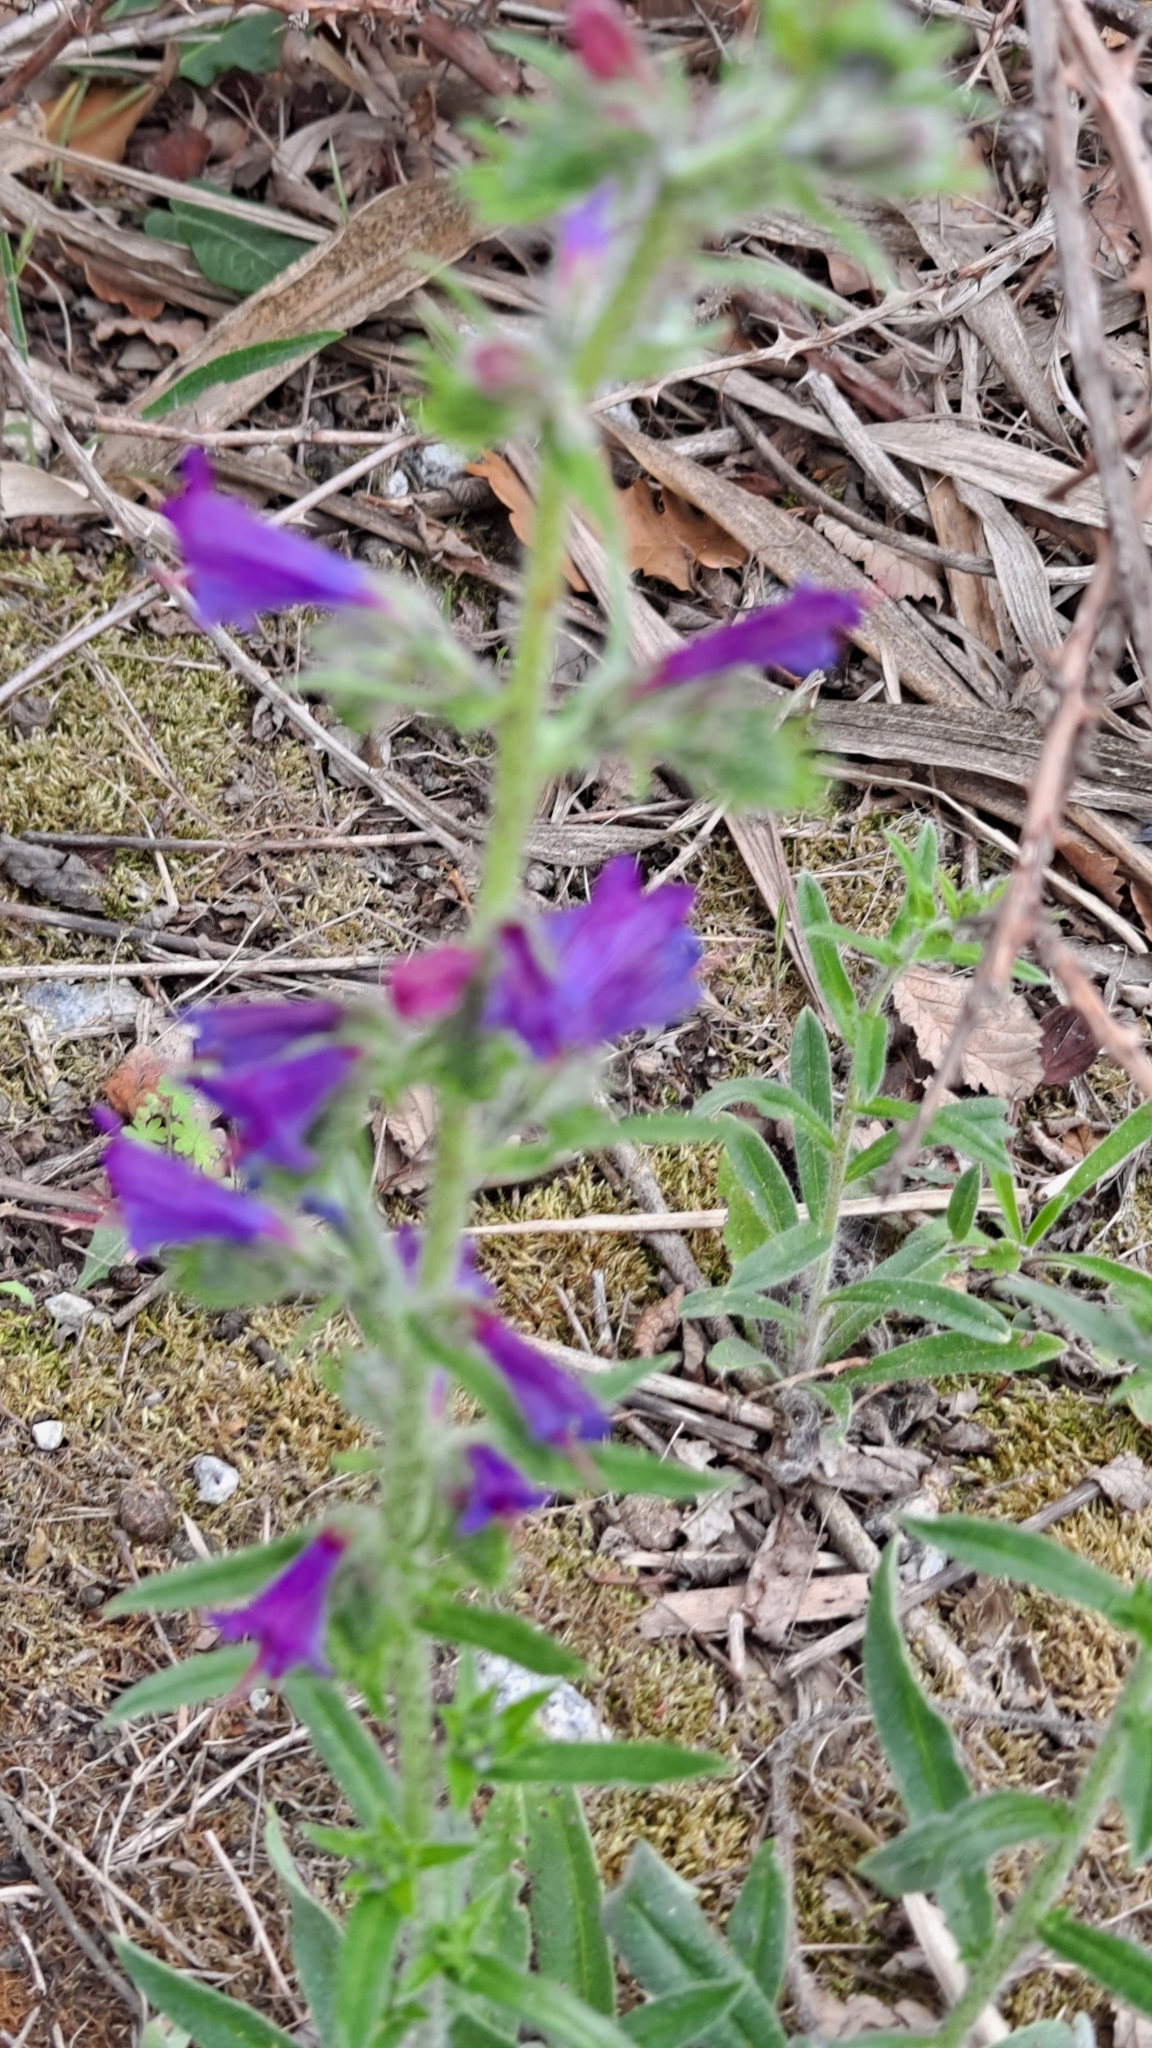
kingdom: Plantae
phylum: Tracheophyta
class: Magnoliopsida
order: Boraginales
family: Boraginaceae
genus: Echium
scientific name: Echium vulgare
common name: Common viper's bugloss
